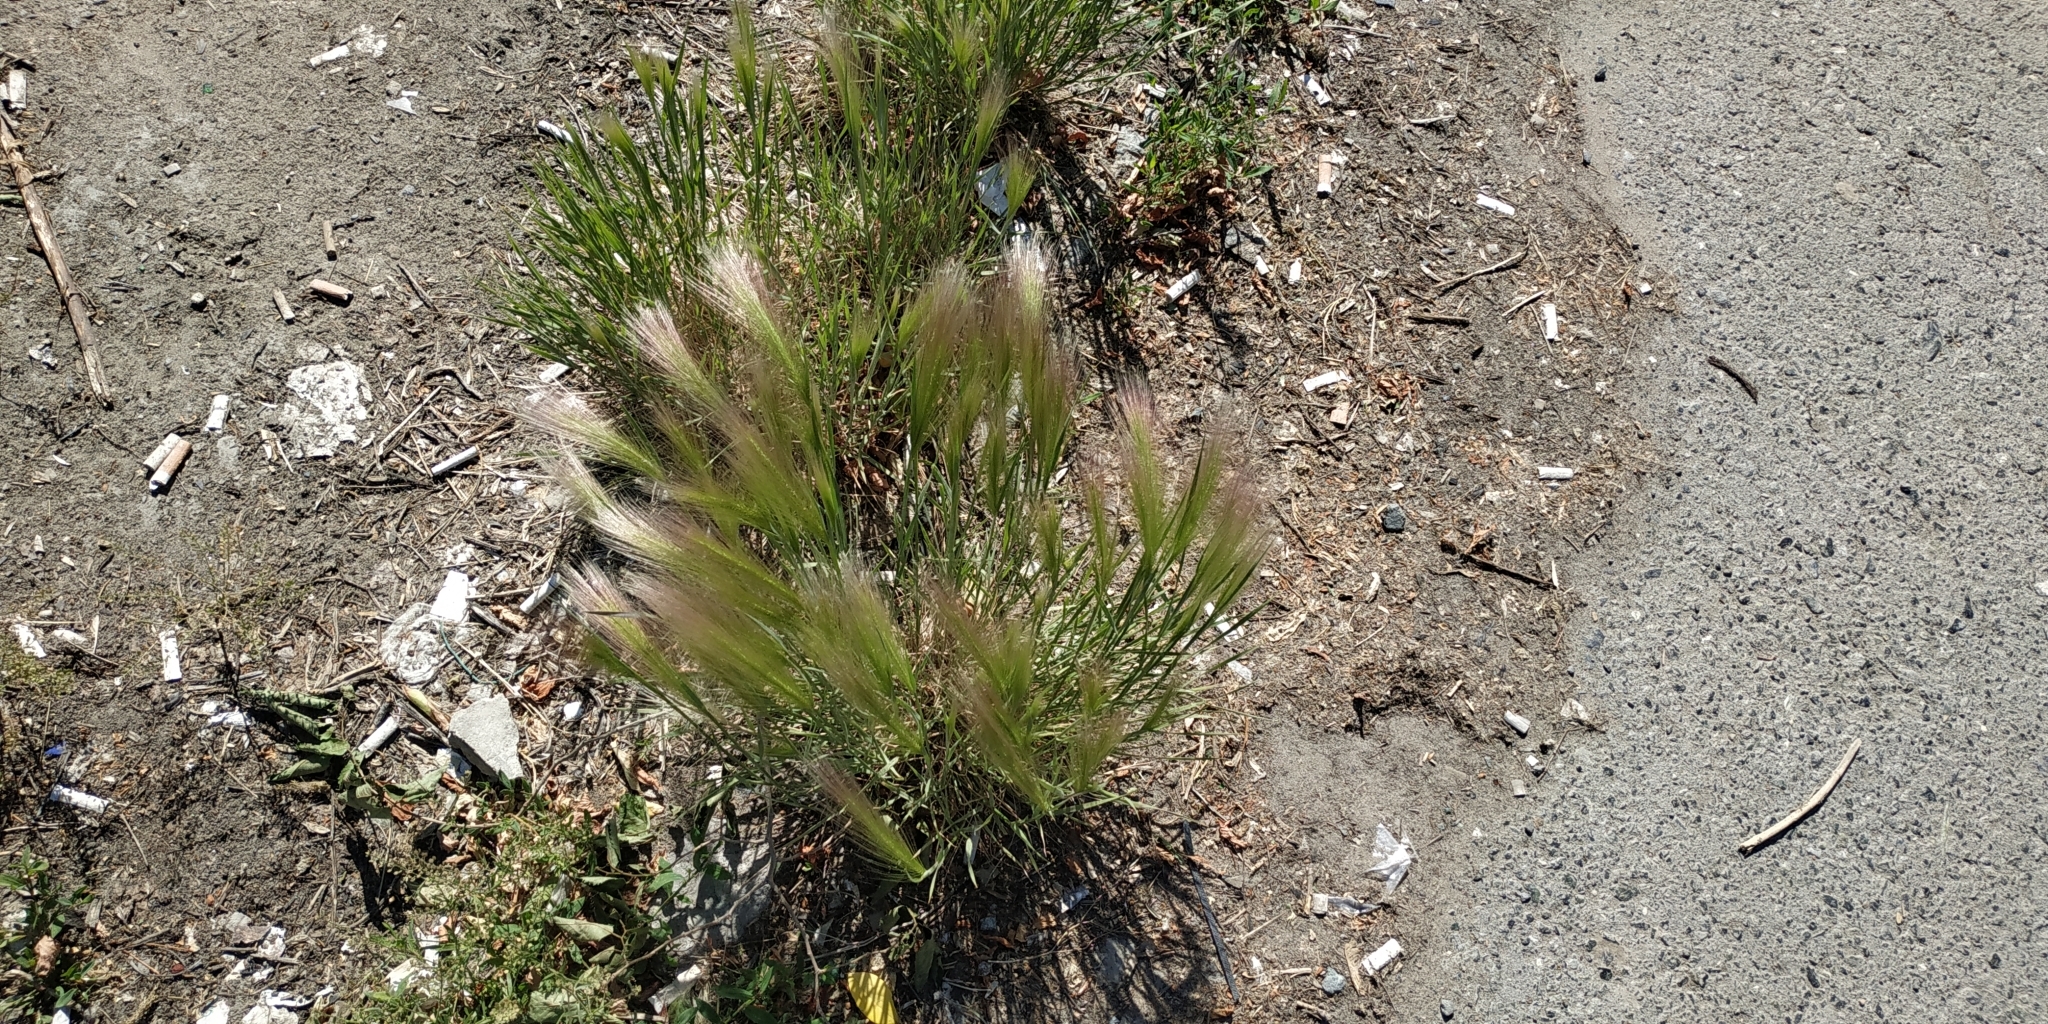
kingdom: Plantae
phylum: Tracheophyta
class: Liliopsida
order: Poales
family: Poaceae
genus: Hordeum
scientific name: Hordeum jubatum
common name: Foxtail barley
